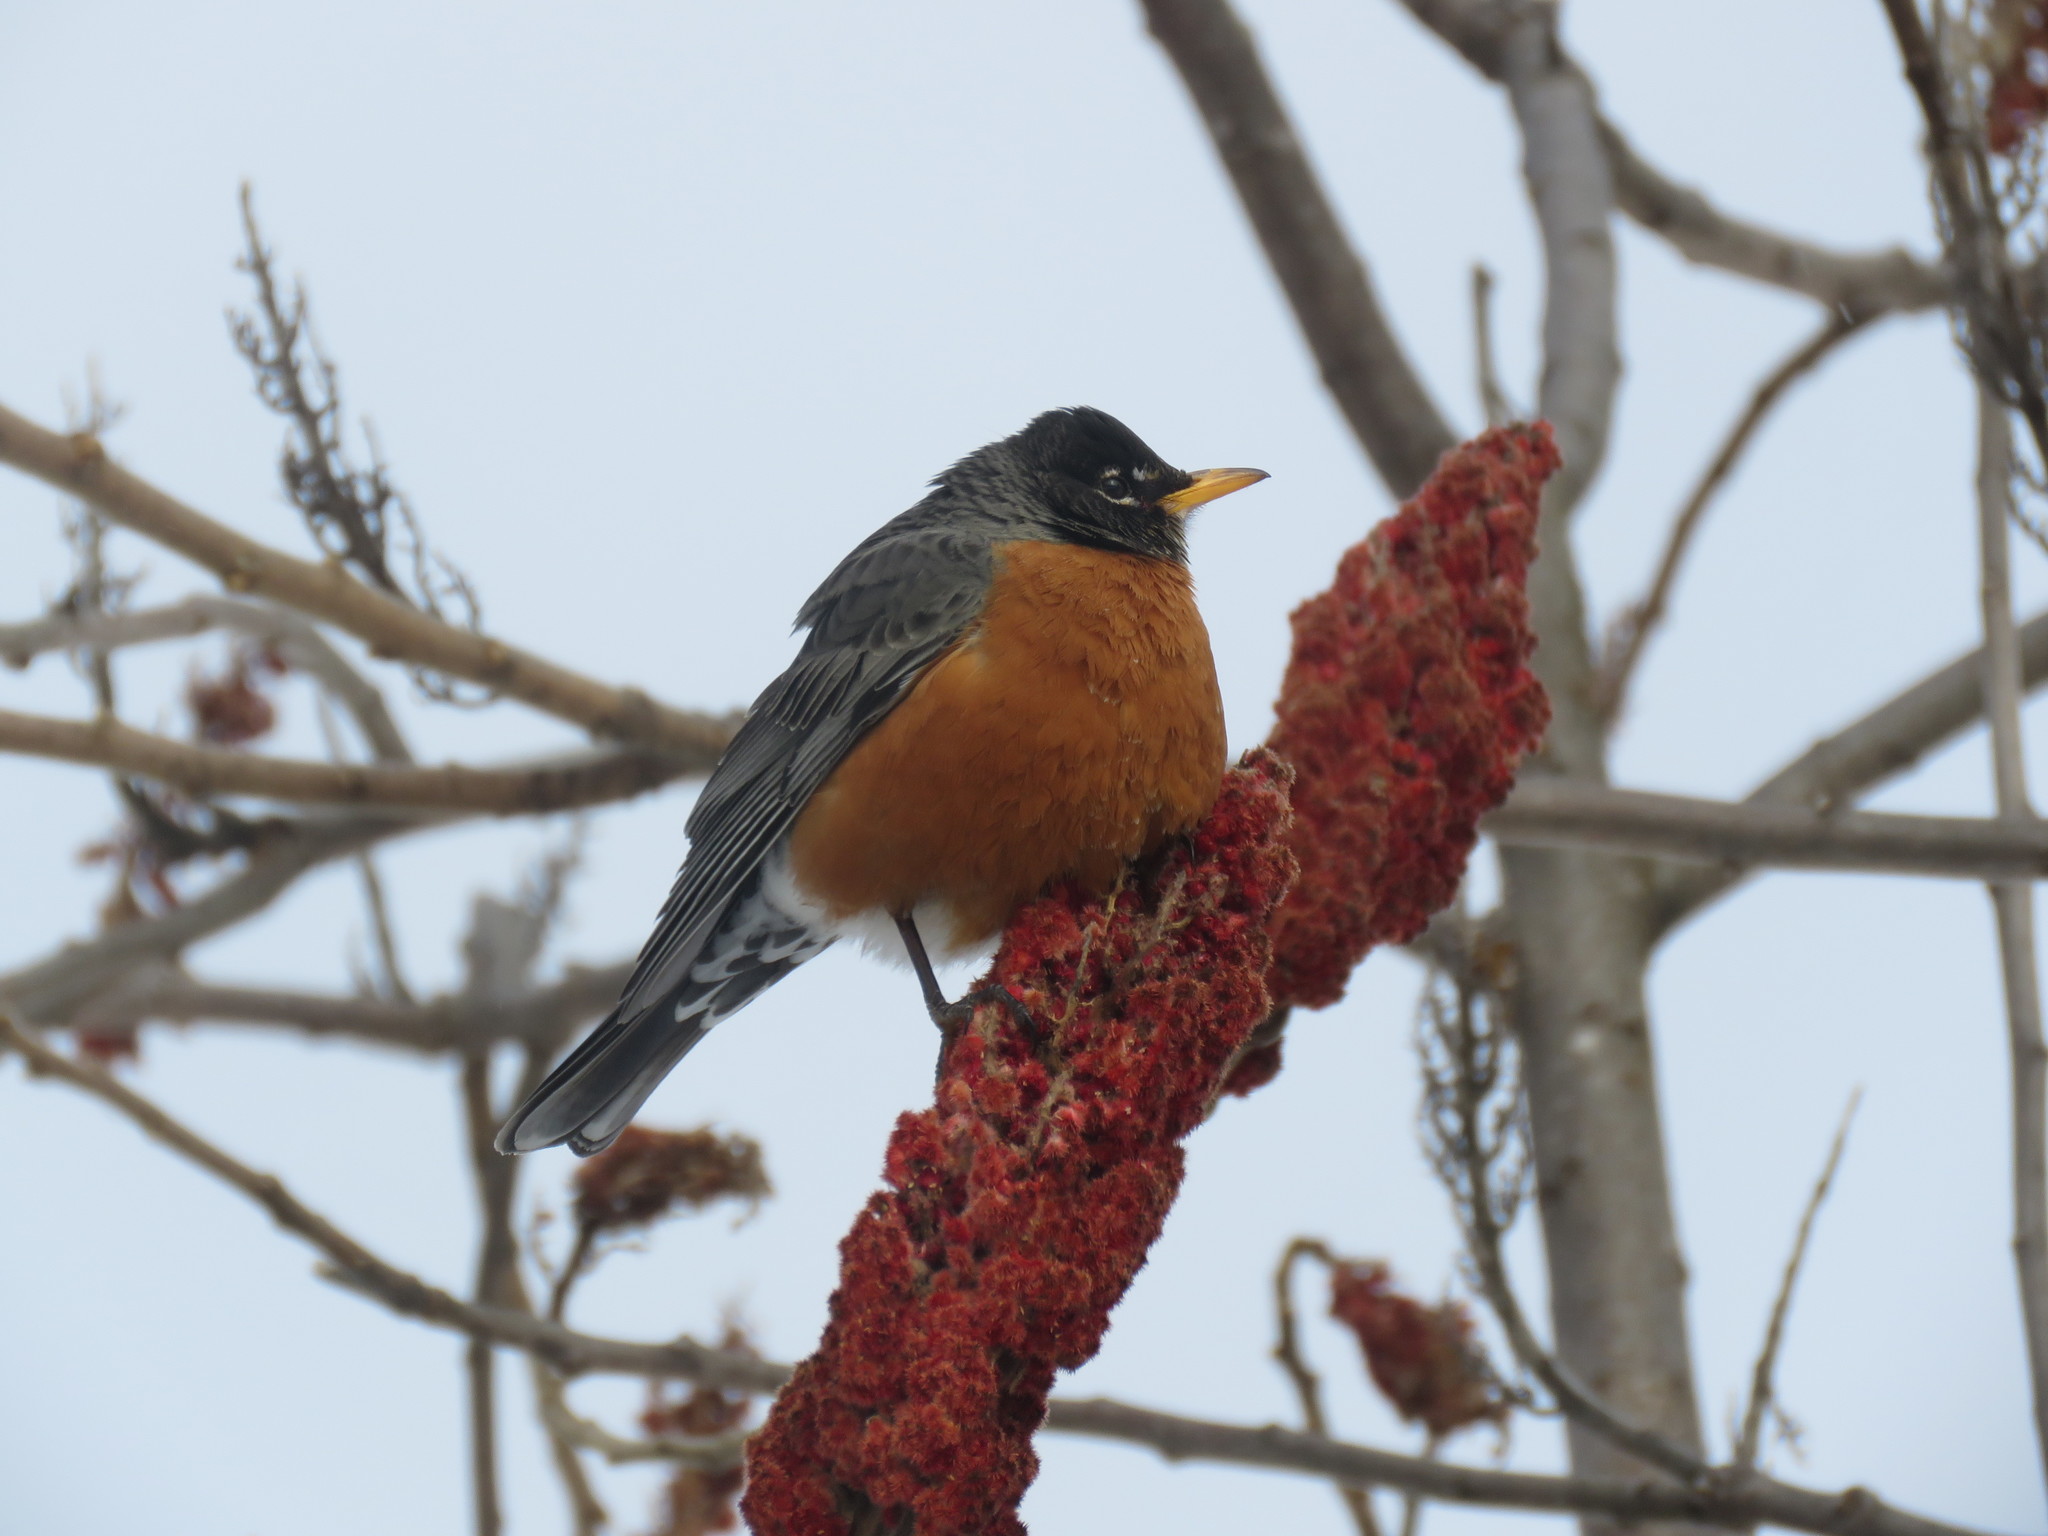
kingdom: Animalia
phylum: Chordata
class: Aves
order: Passeriformes
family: Turdidae
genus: Turdus
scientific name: Turdus migratorius
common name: American robin
